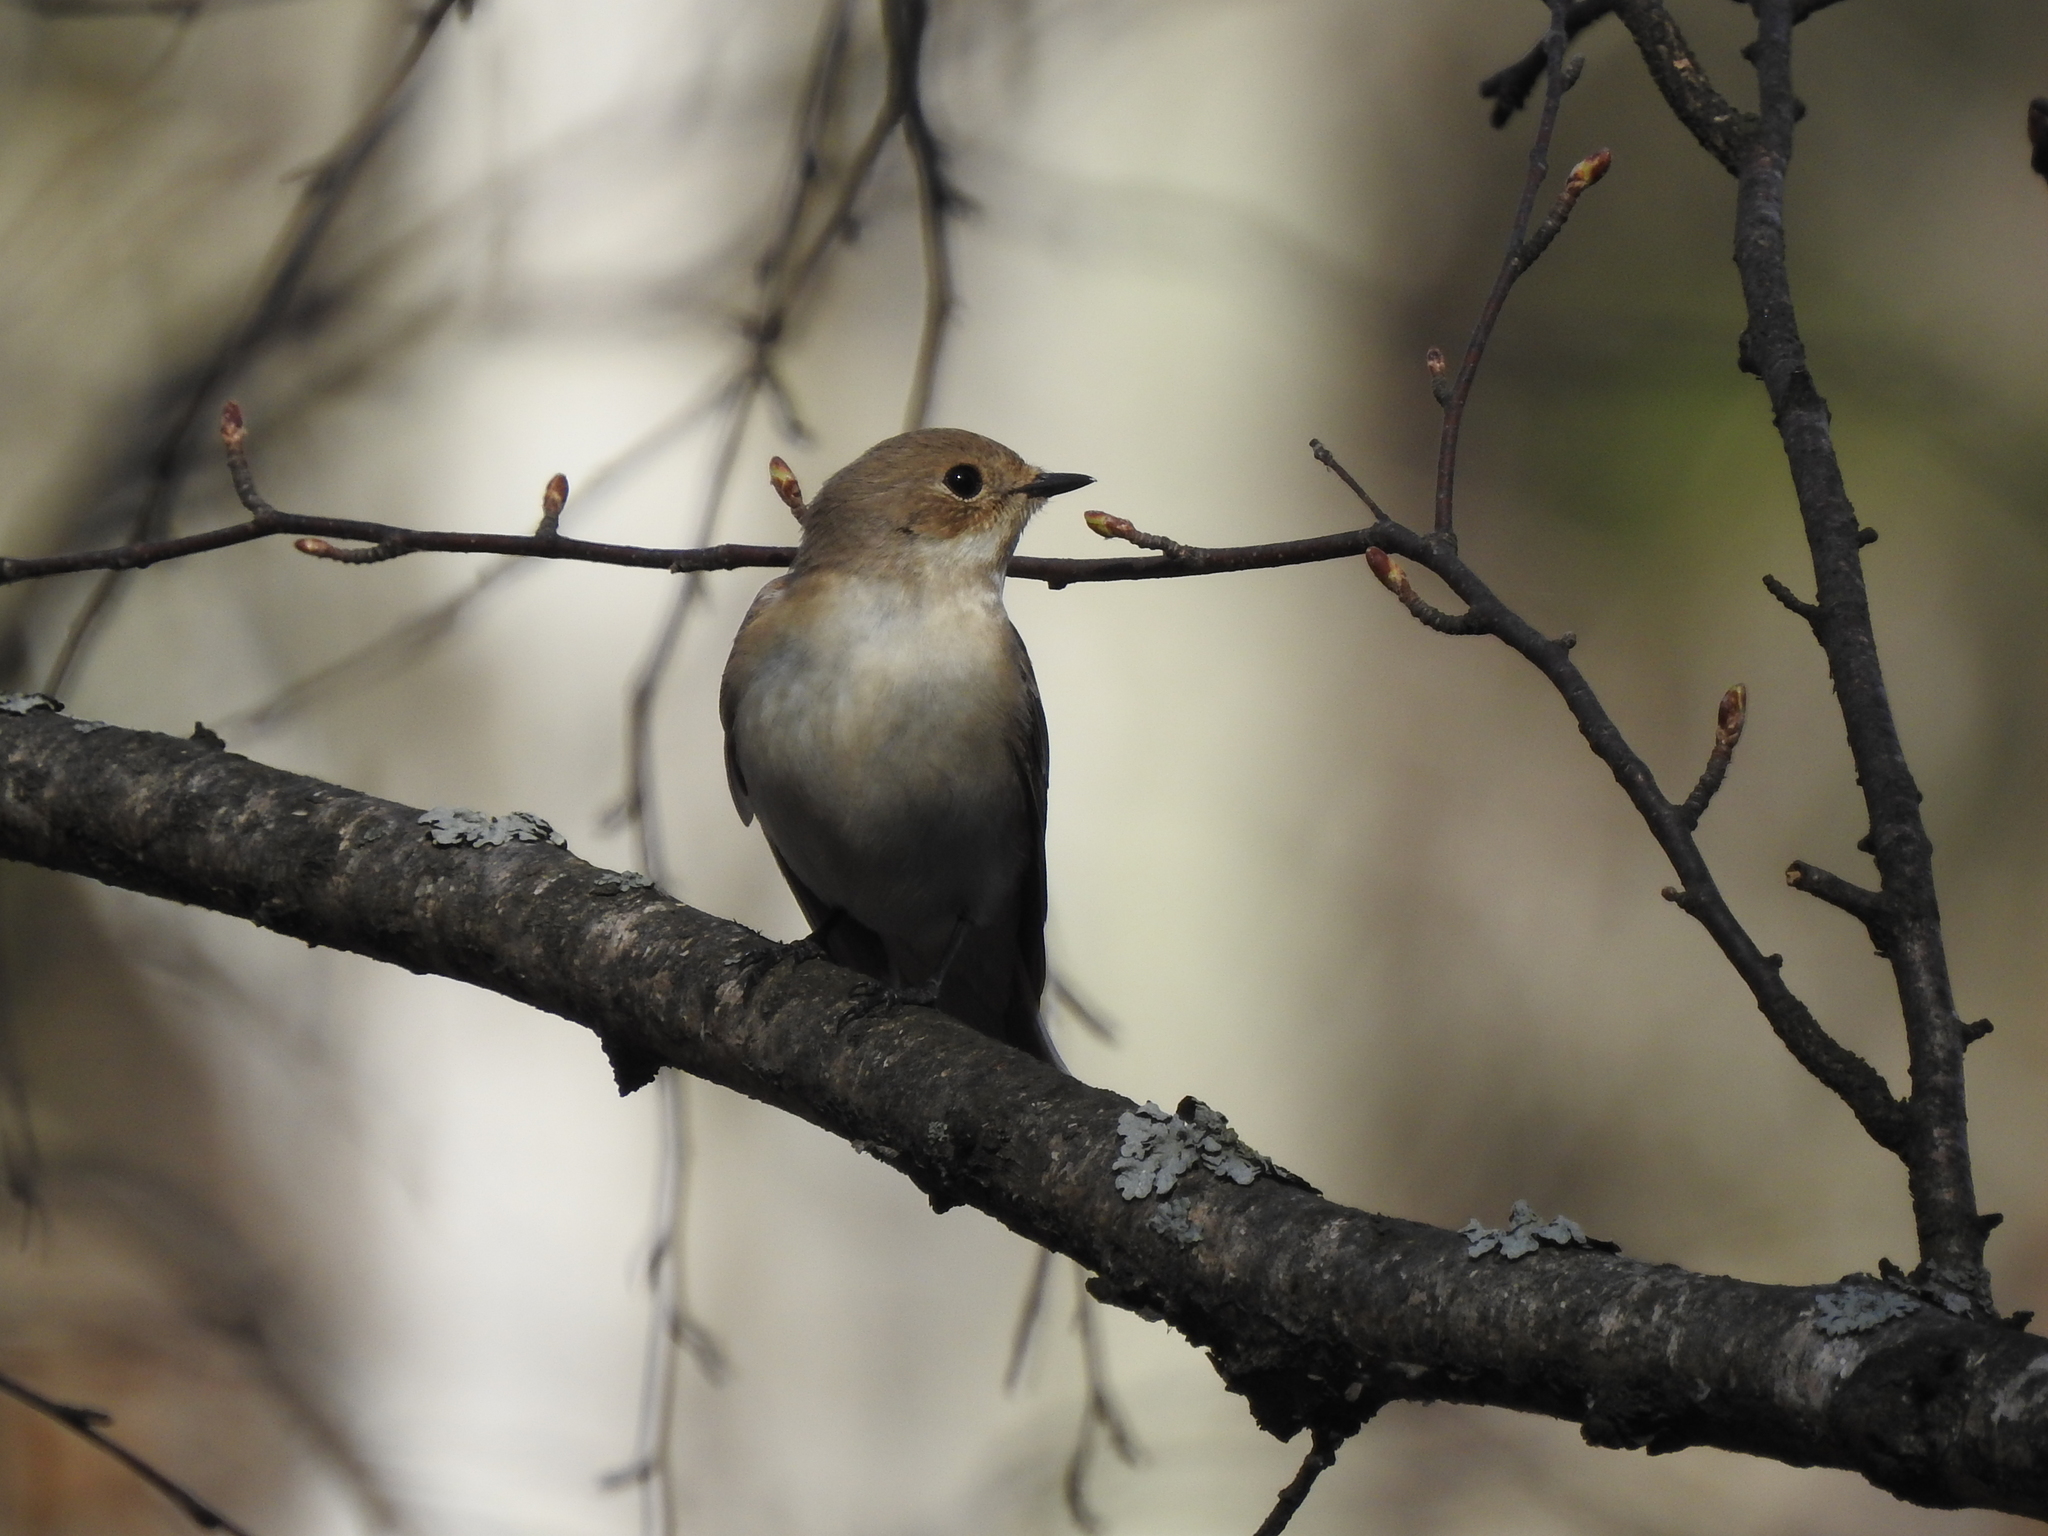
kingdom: Animalia
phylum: Chordata
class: Aves
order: Passeriformes
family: Muscicapidae
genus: Ficedula
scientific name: Ficedula hypoleuca
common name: European pied flycatcher
